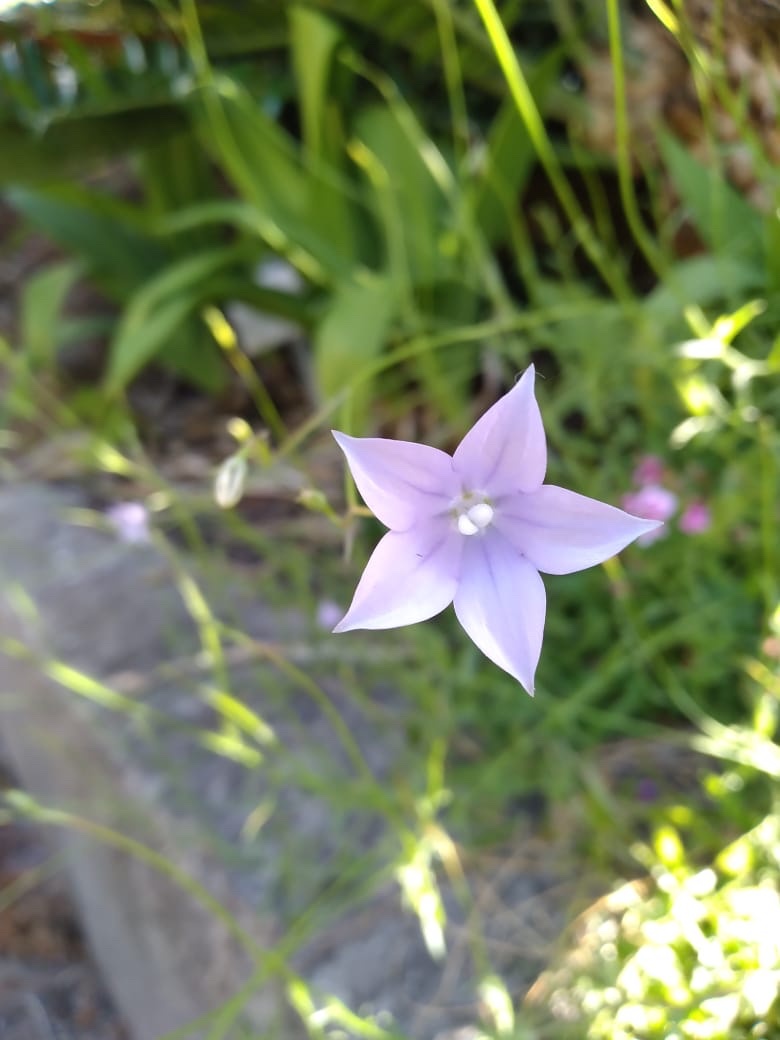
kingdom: Plantae
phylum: Tracheophyta
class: Magnoliopsida
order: Asterales
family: Campanulaceae
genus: Wahlenbergia
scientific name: Wahlenbergia undulata
